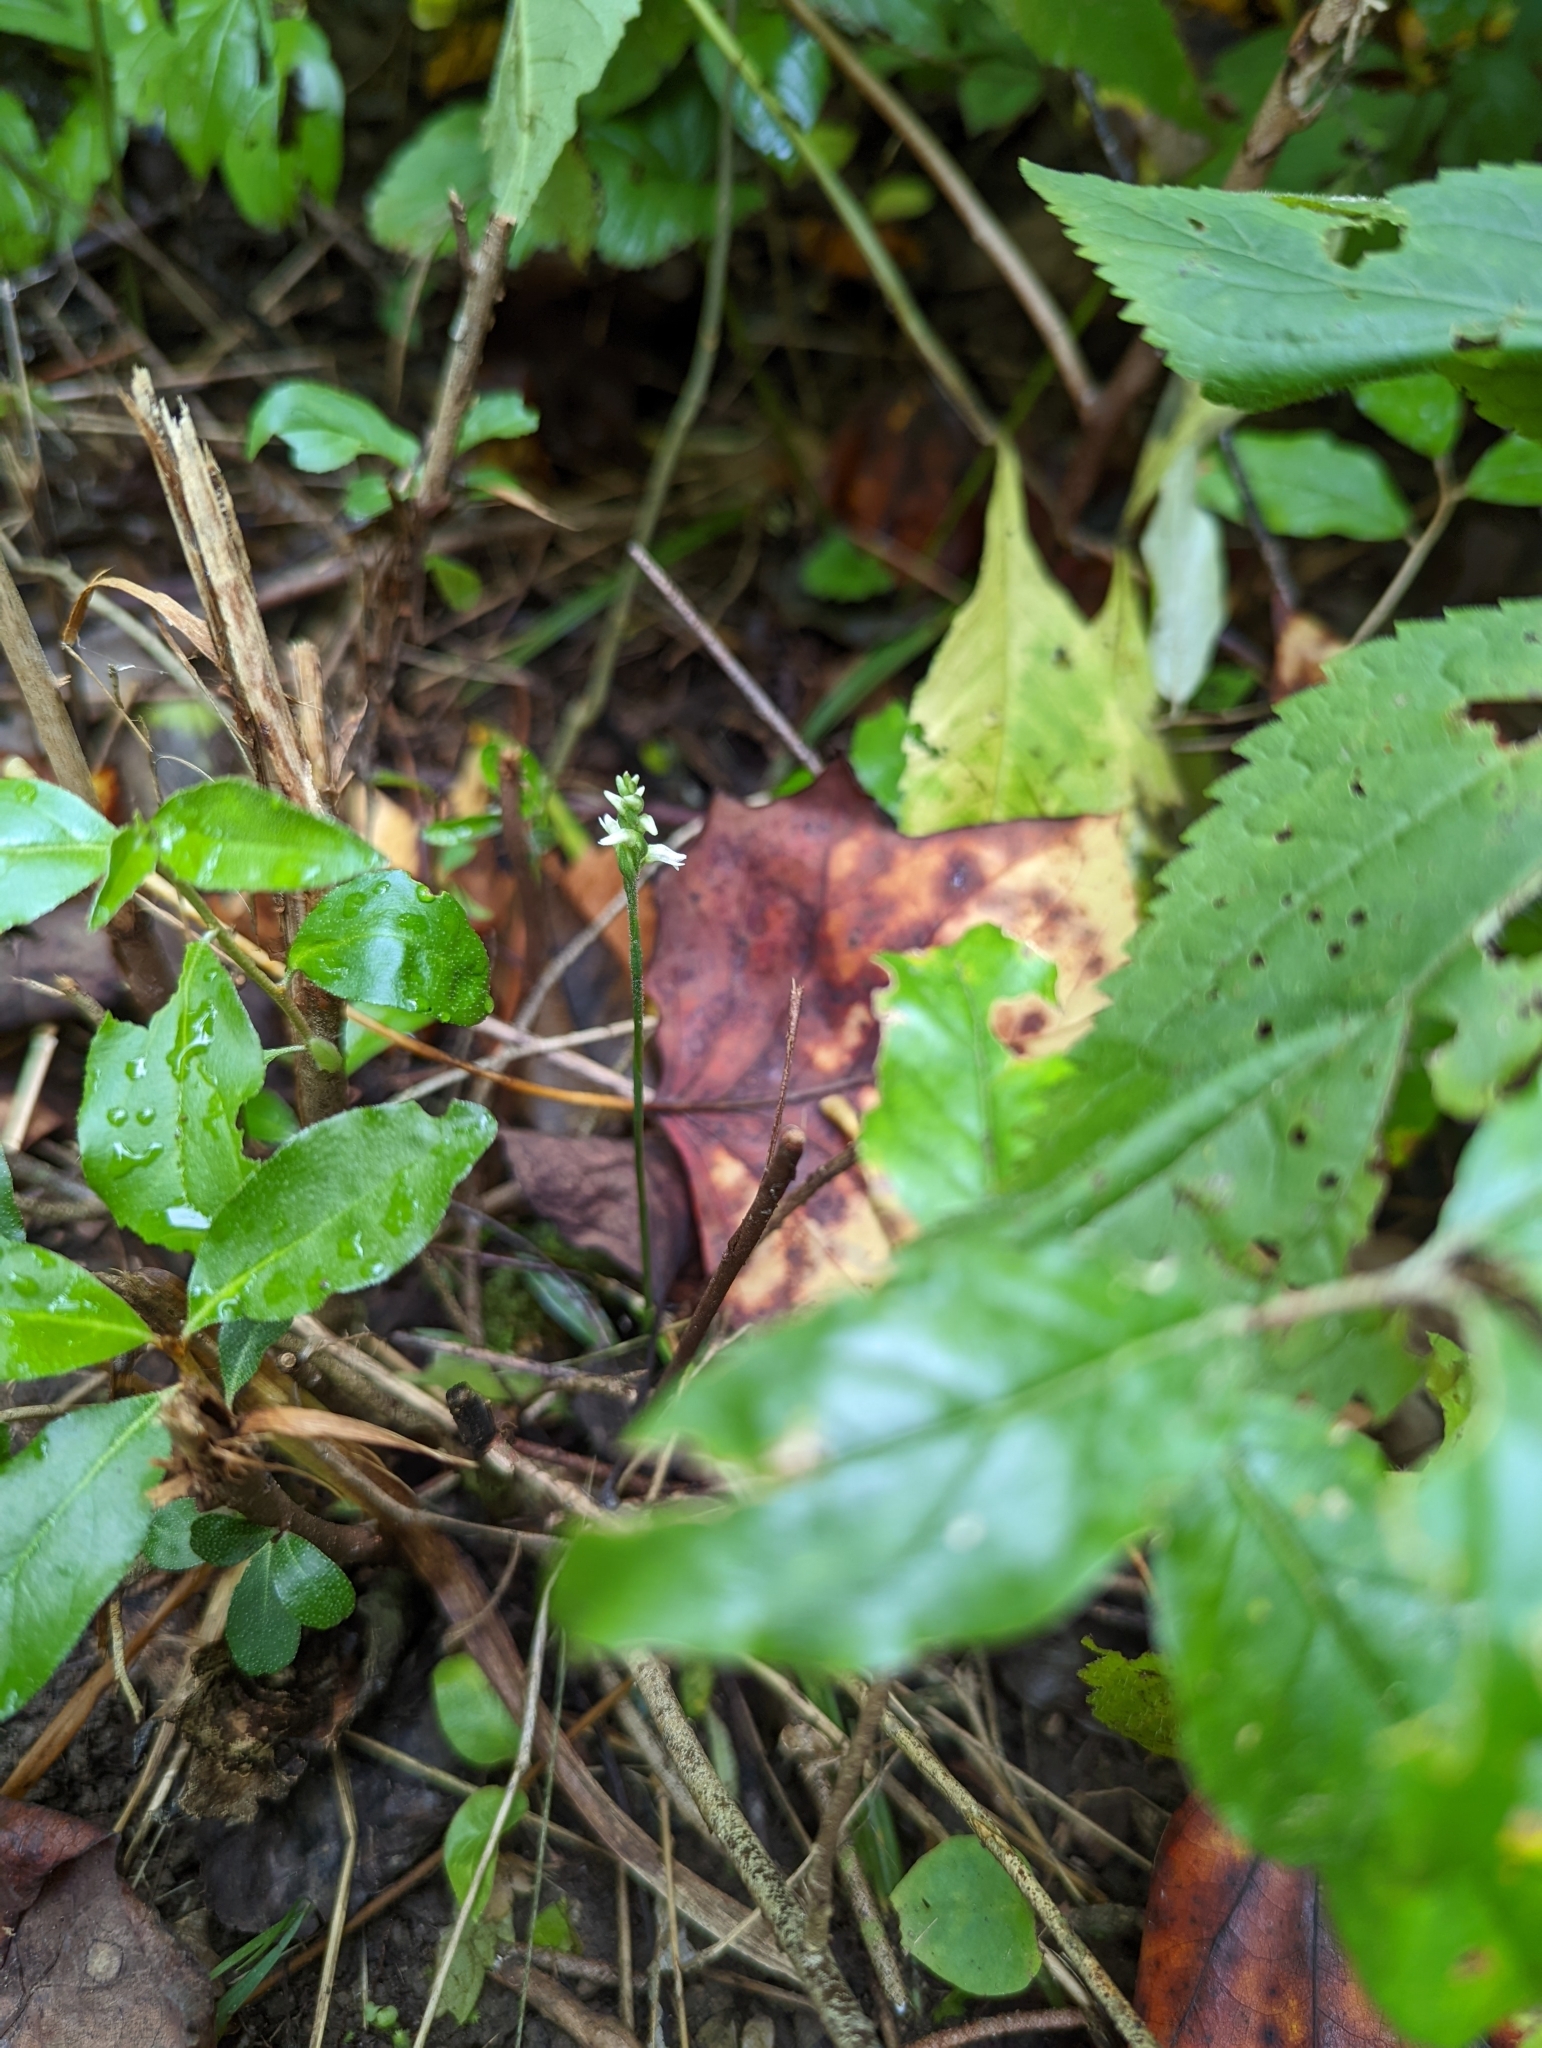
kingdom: Plantae
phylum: Tracheophyta
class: Liliopsida
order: Asparagales
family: Orchidaceae
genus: Spiranthes
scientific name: Spiranthes ovalis
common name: October ladies'-tresses
